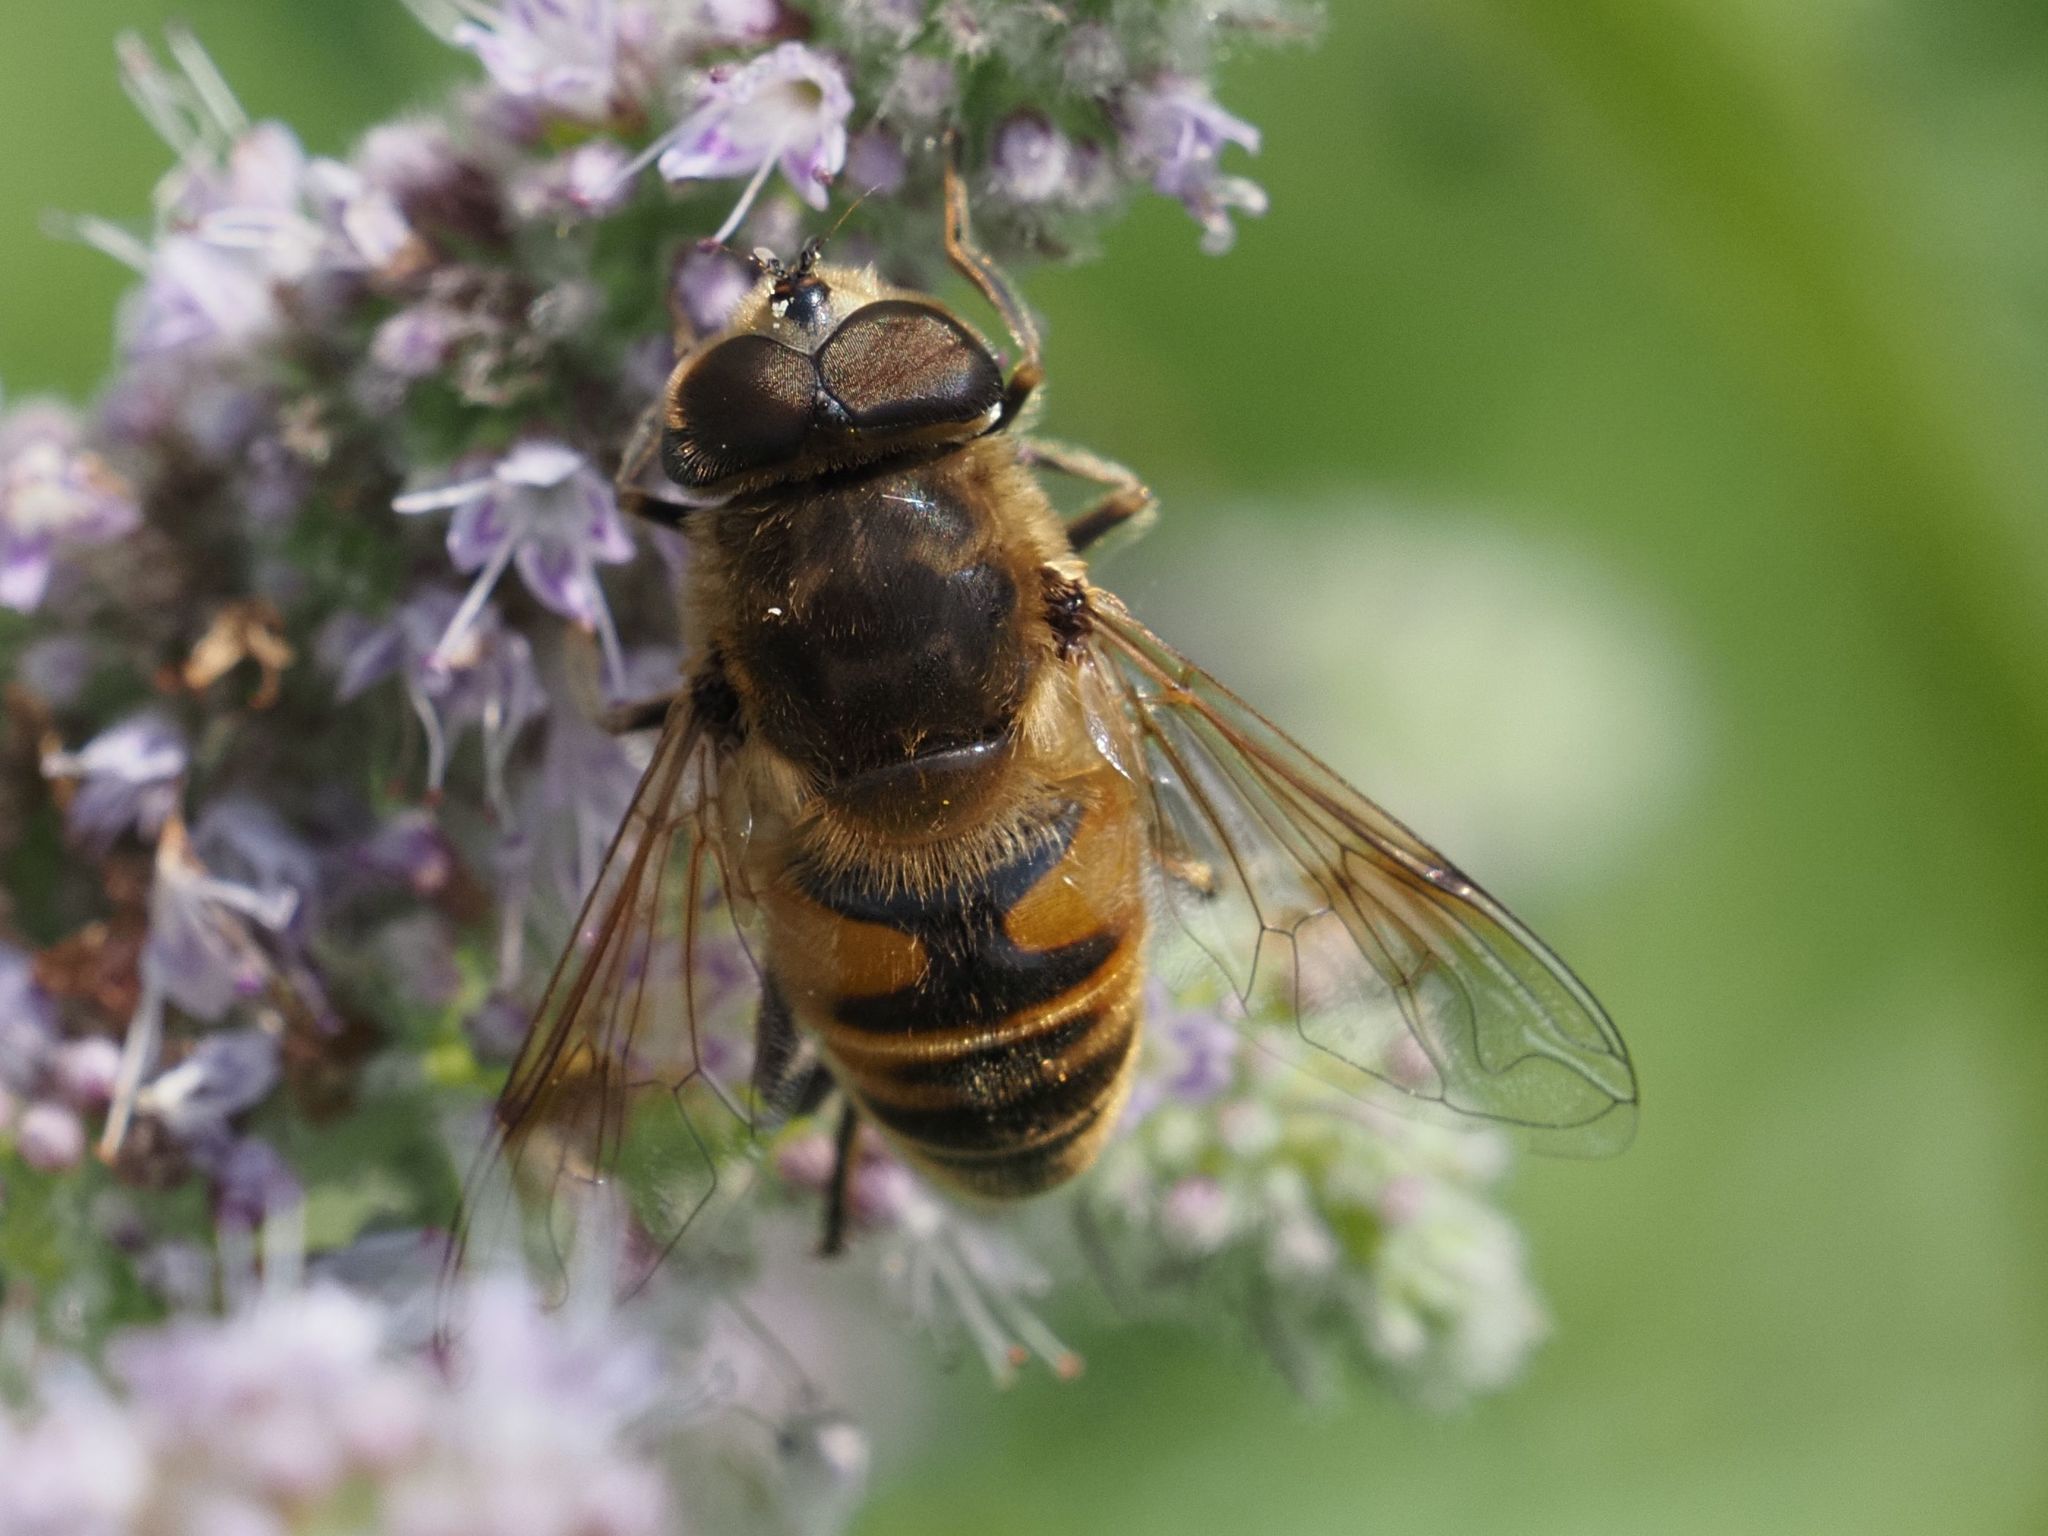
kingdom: Animalia
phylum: Arthropoda
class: Insecta
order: Diptera
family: Syrphidae
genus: Eristalis
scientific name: Eristalis tenax
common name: Drone fly
